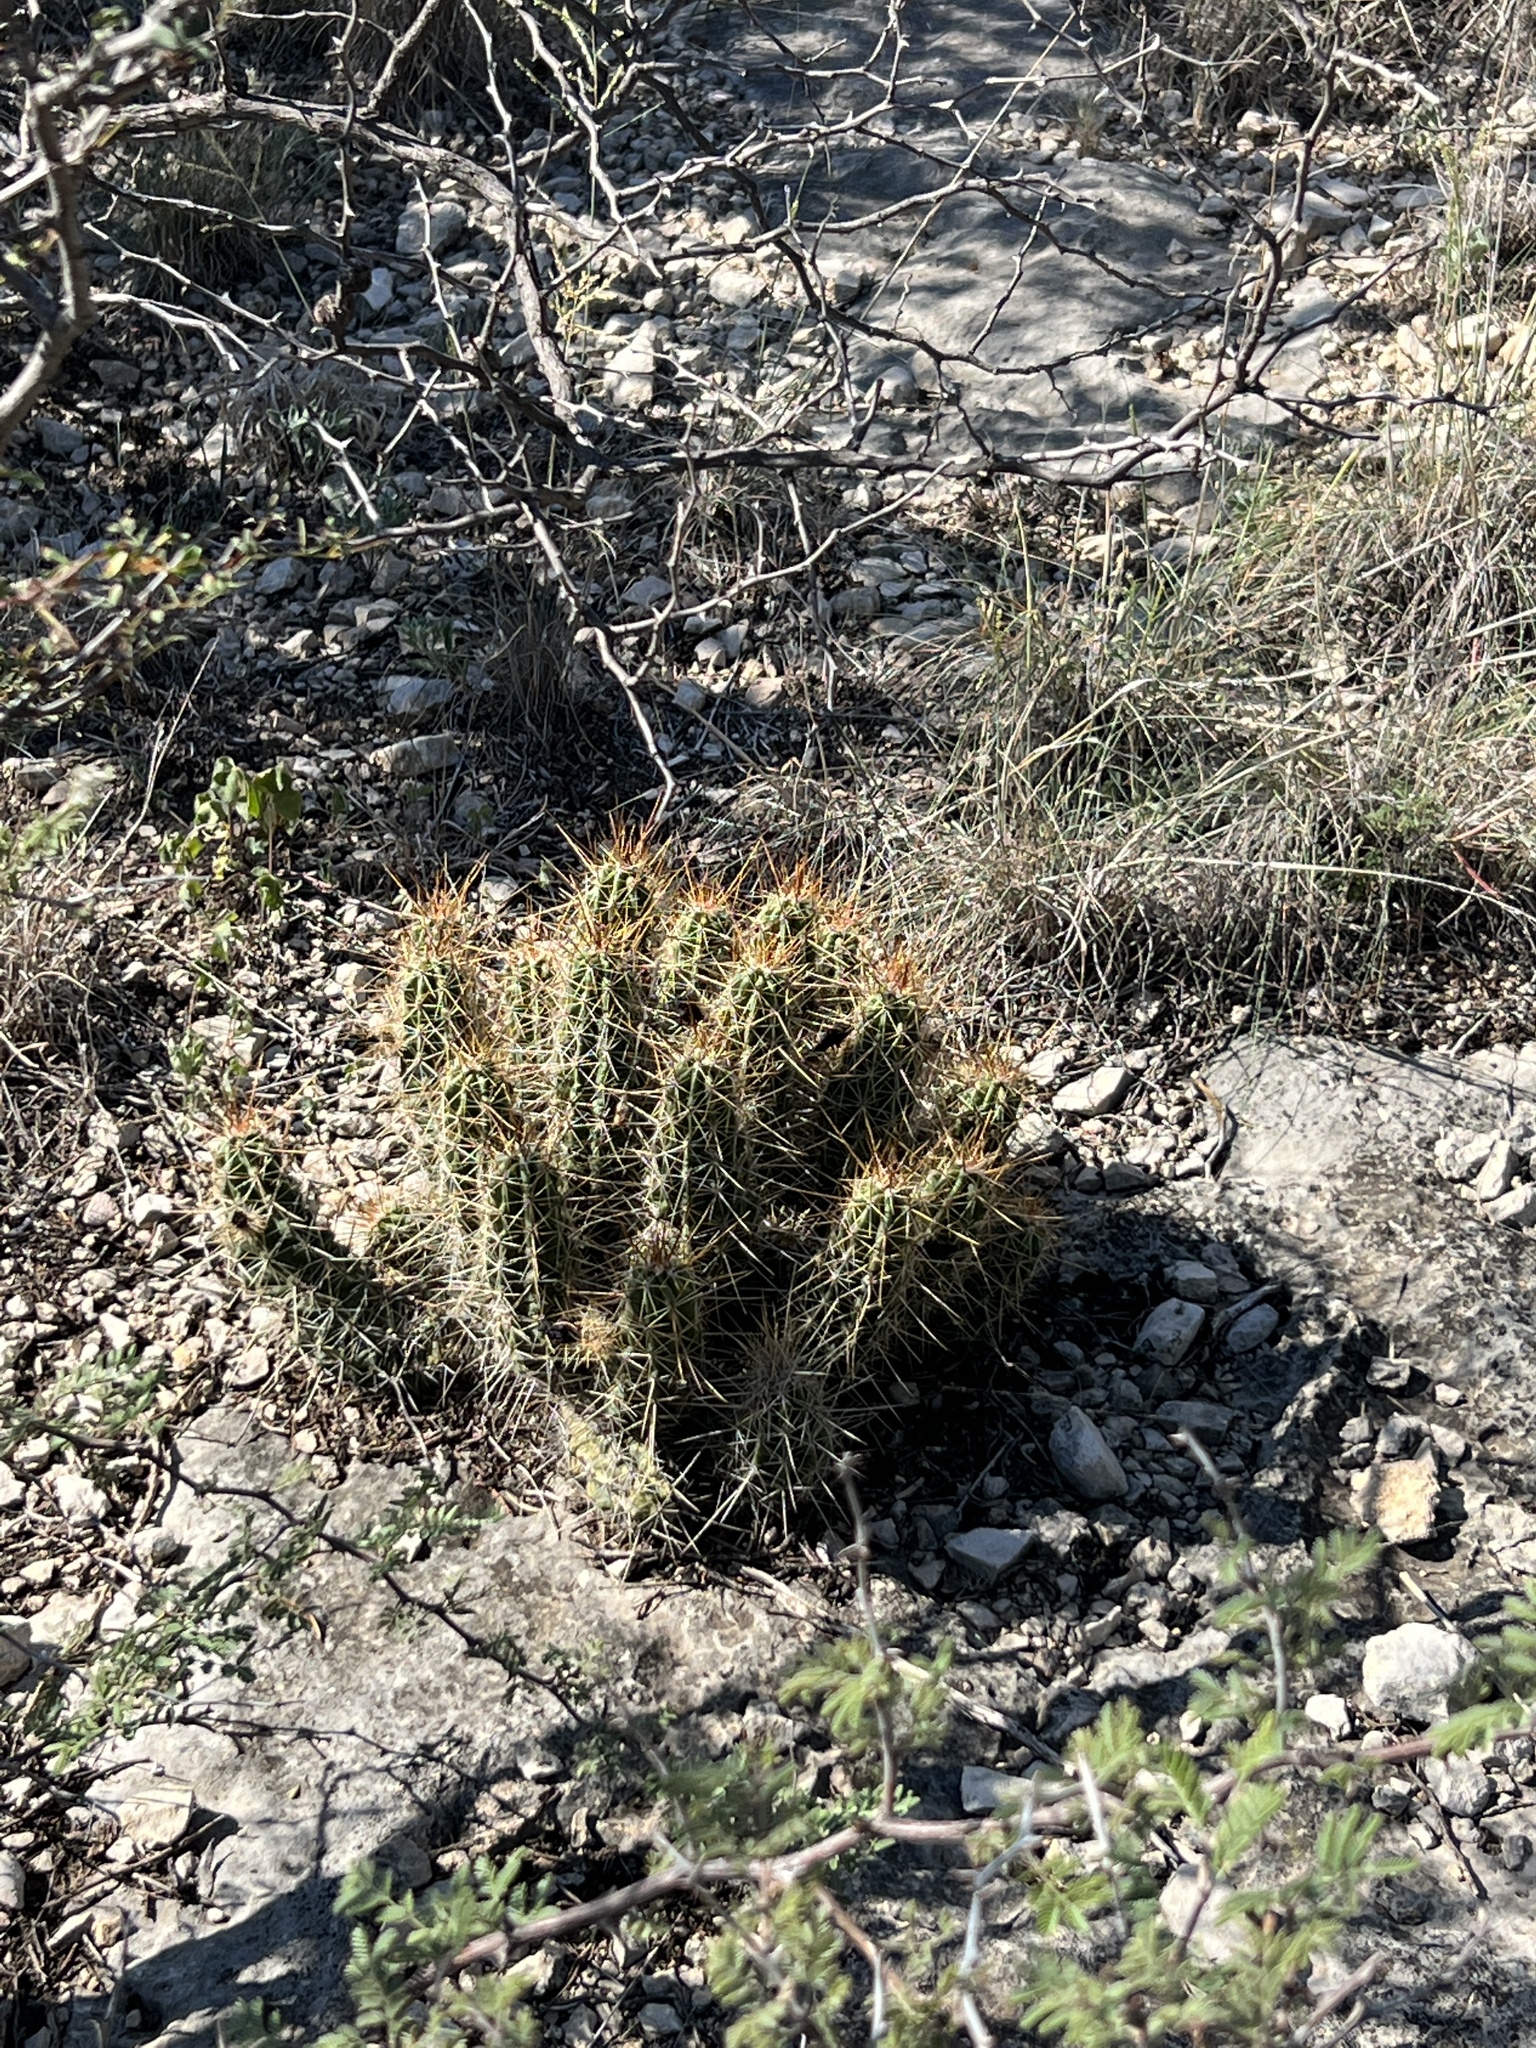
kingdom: Plantae
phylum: Tracheophyta
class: Magnoliopsida
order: Caryophyllales
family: Cactaceae
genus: Echinocereus
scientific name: Echinocereus enneacanthus
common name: Pitaya
